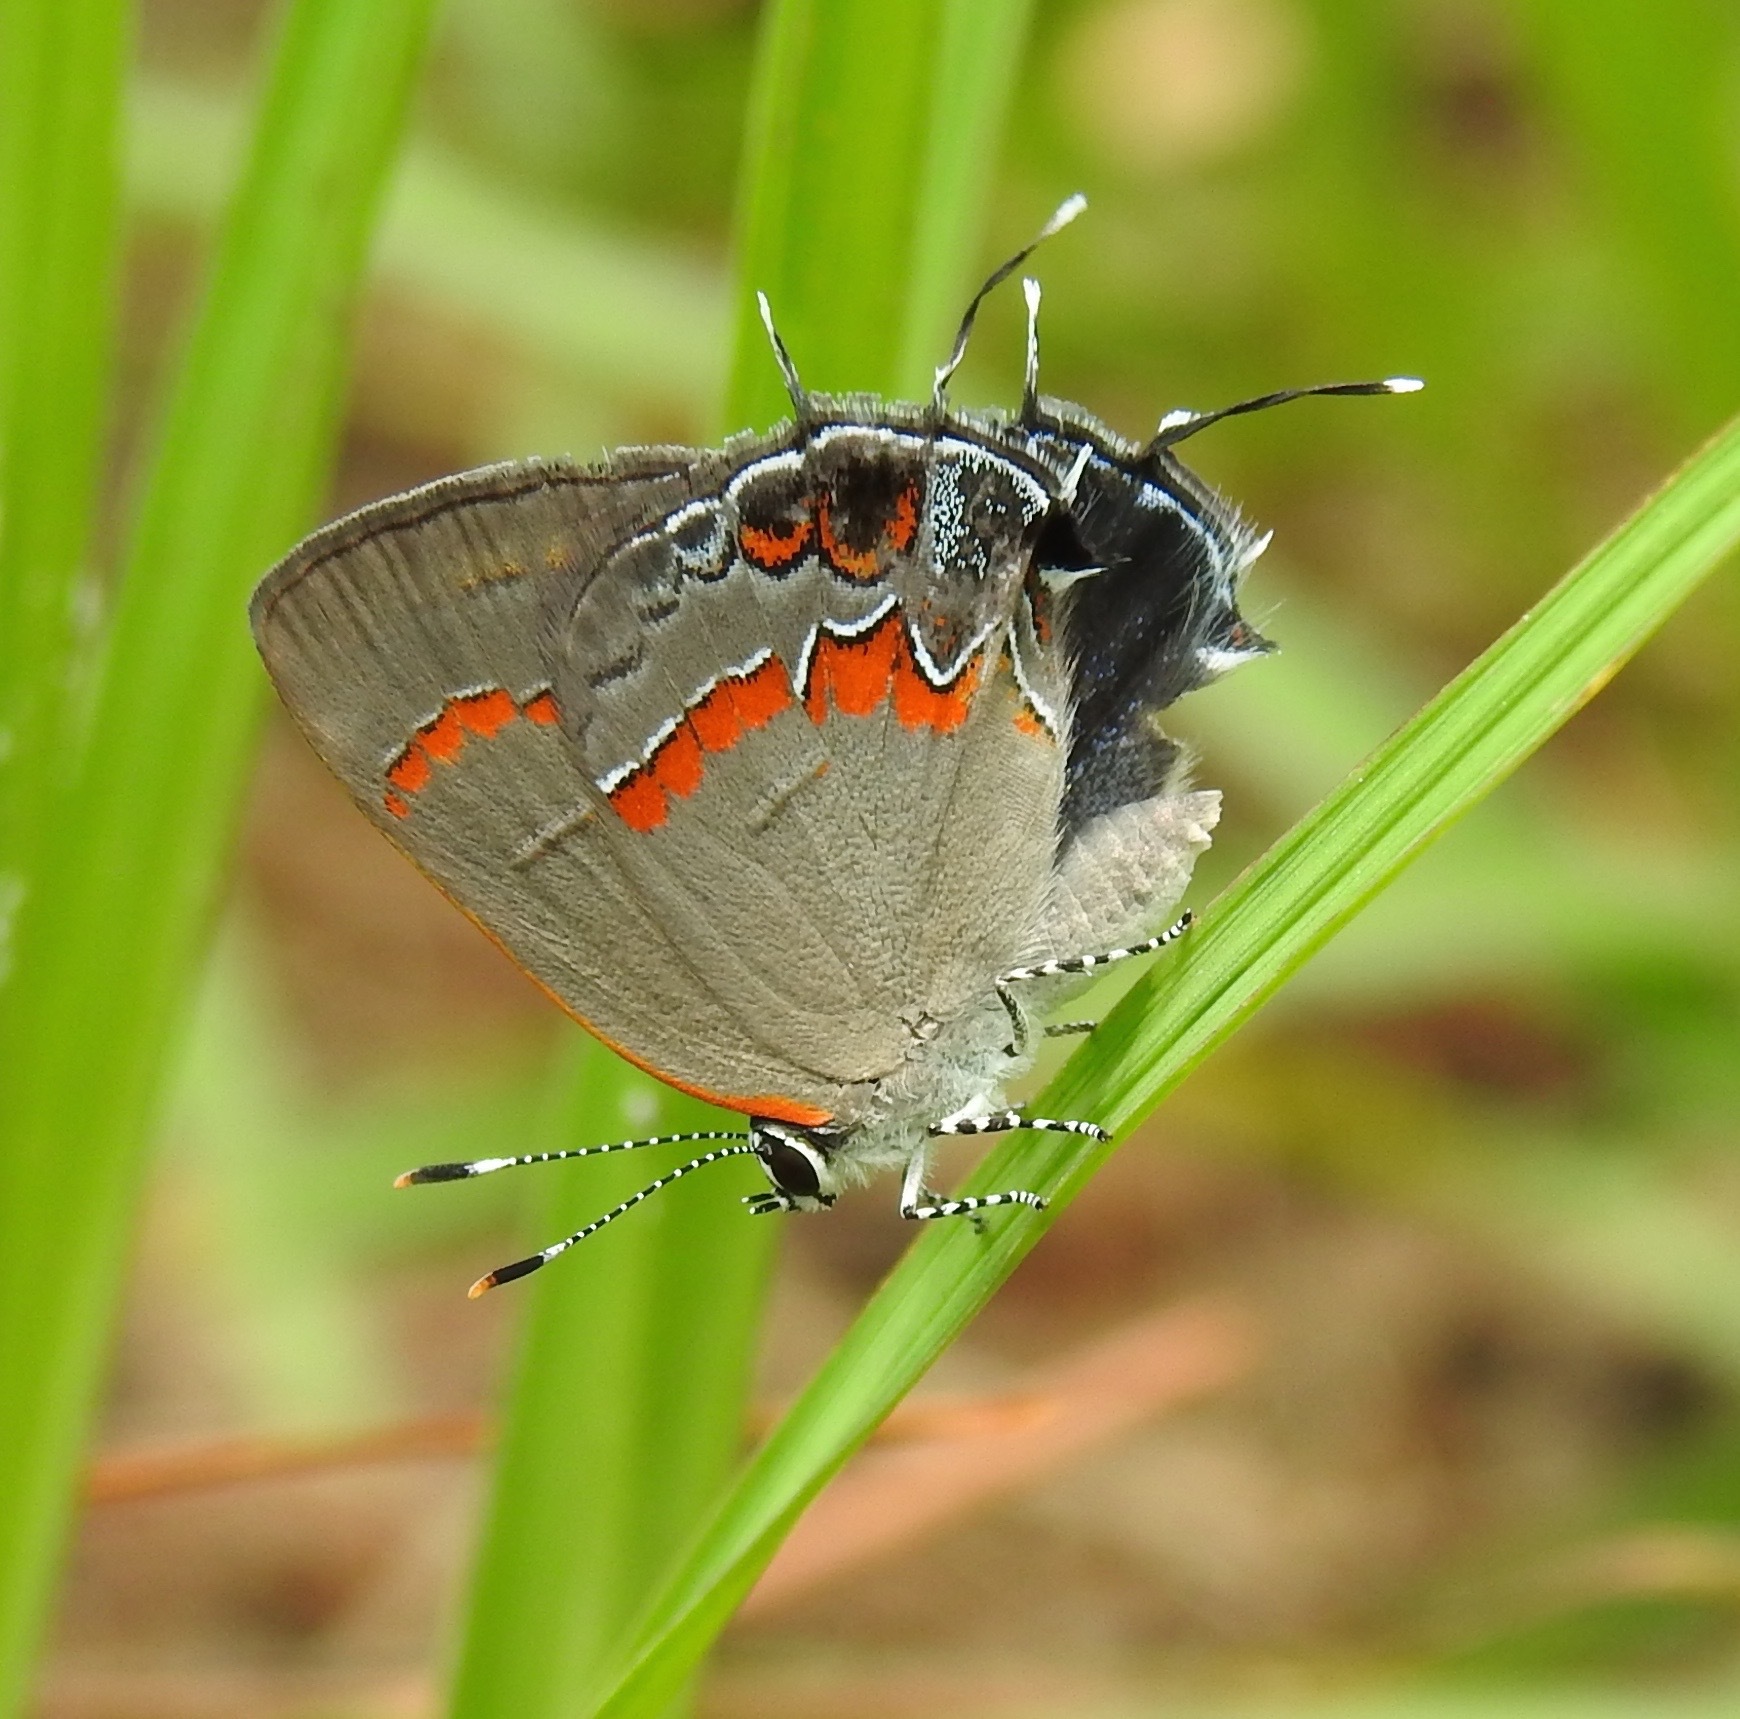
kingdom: Animalia
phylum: Arthropoda
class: Insecta
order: Lepidoptera
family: Lycaenidae
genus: Calycopis
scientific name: Calycopis cecrops
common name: Red-banded hairstreak
